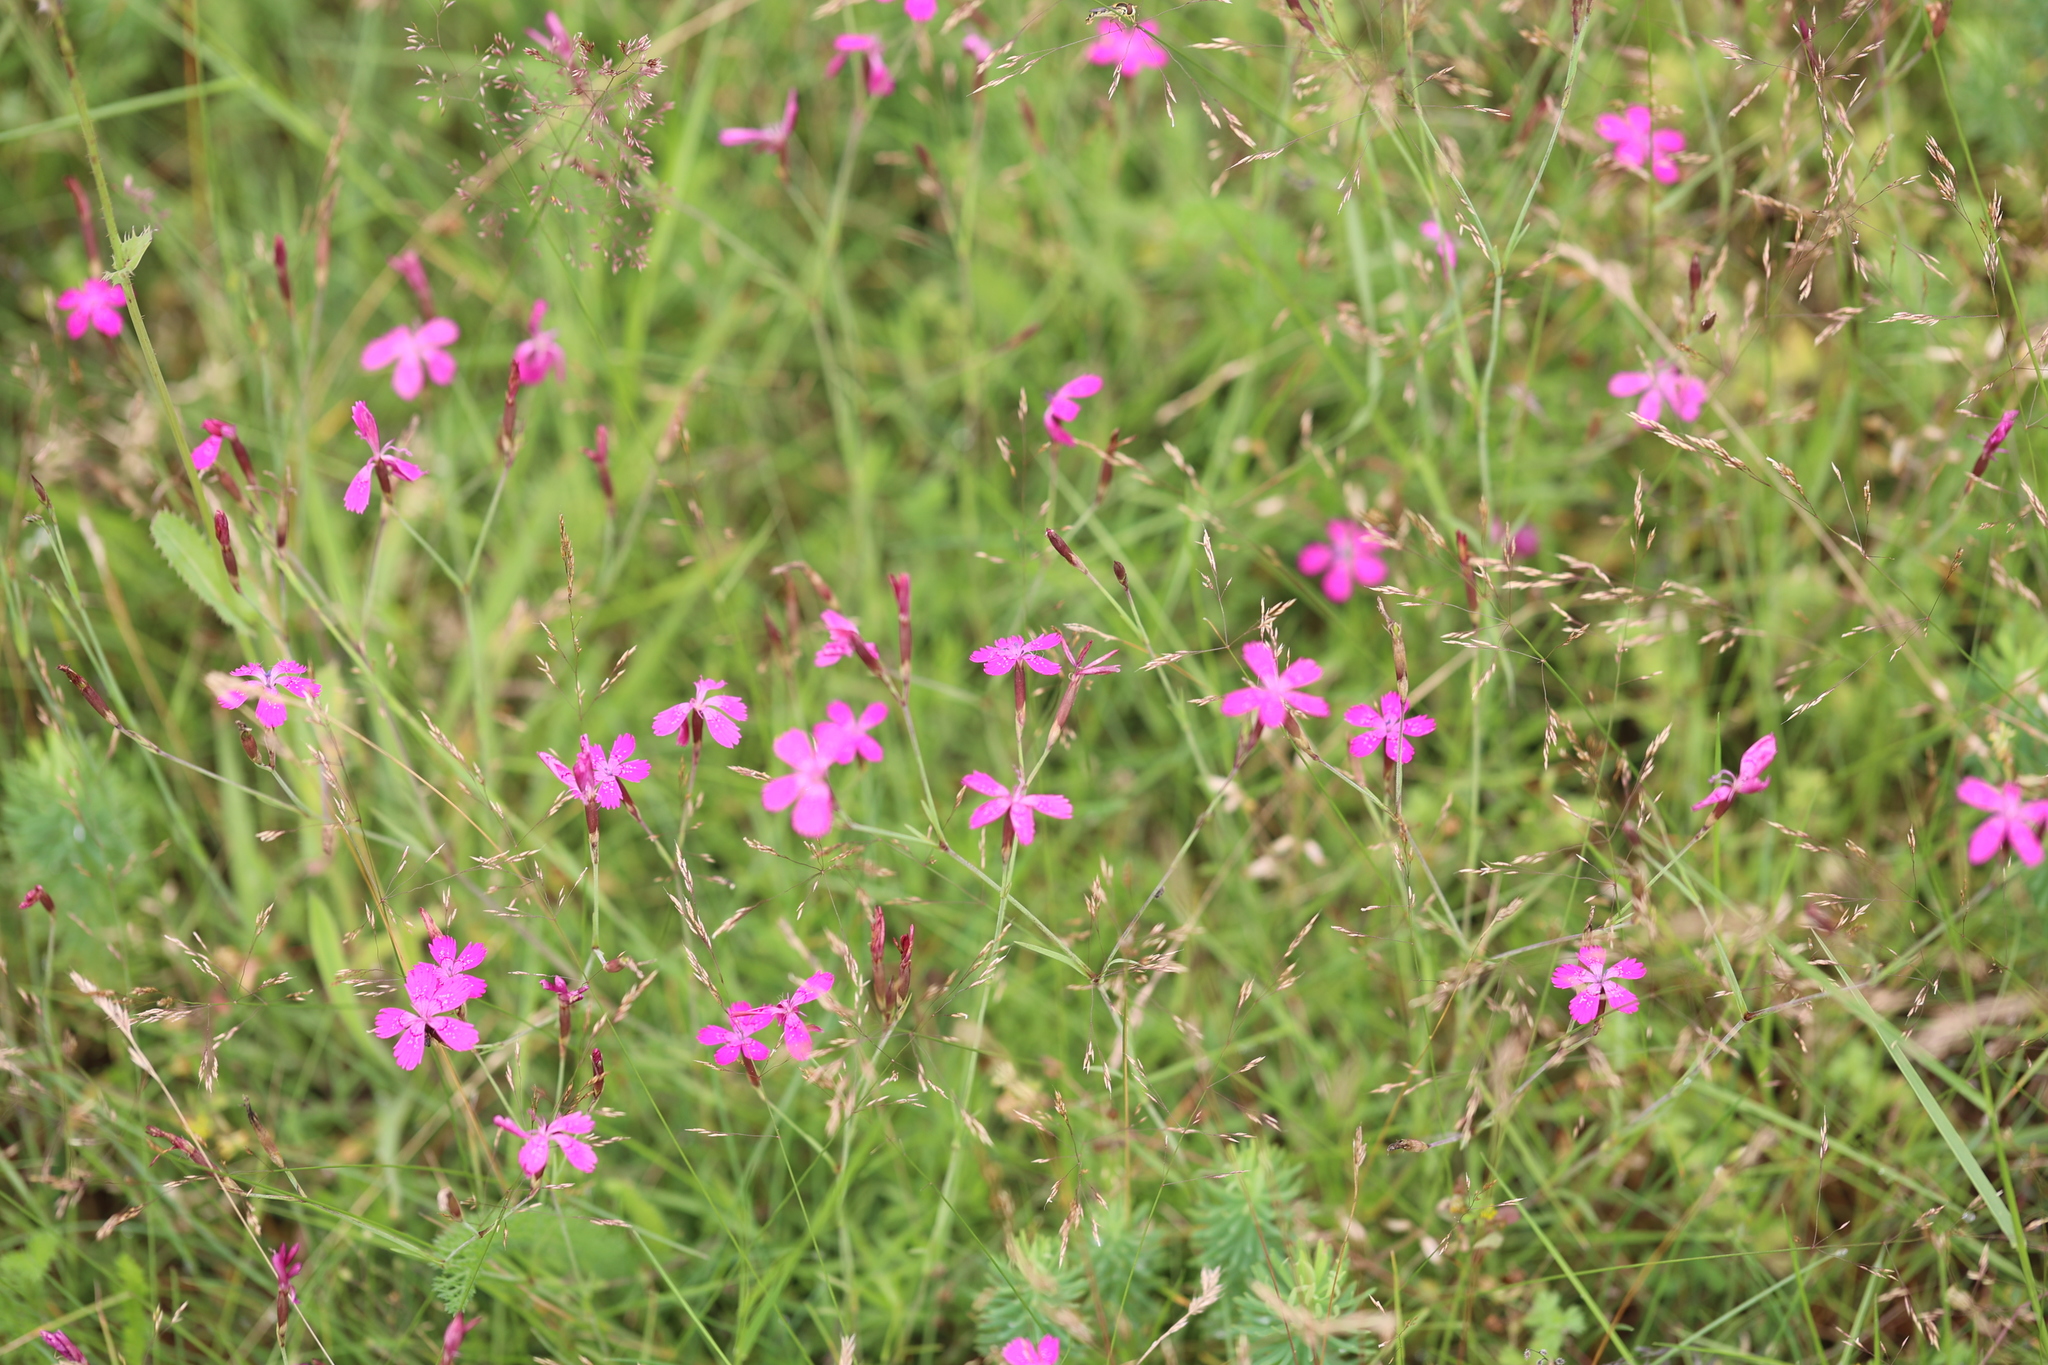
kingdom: Plantae
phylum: Tracheophyta
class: Magnoliopsida
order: Caryophyllales
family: Caryophyllaceae
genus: Dianthus
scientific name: Dianthus deltoides
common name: Maiden pink
